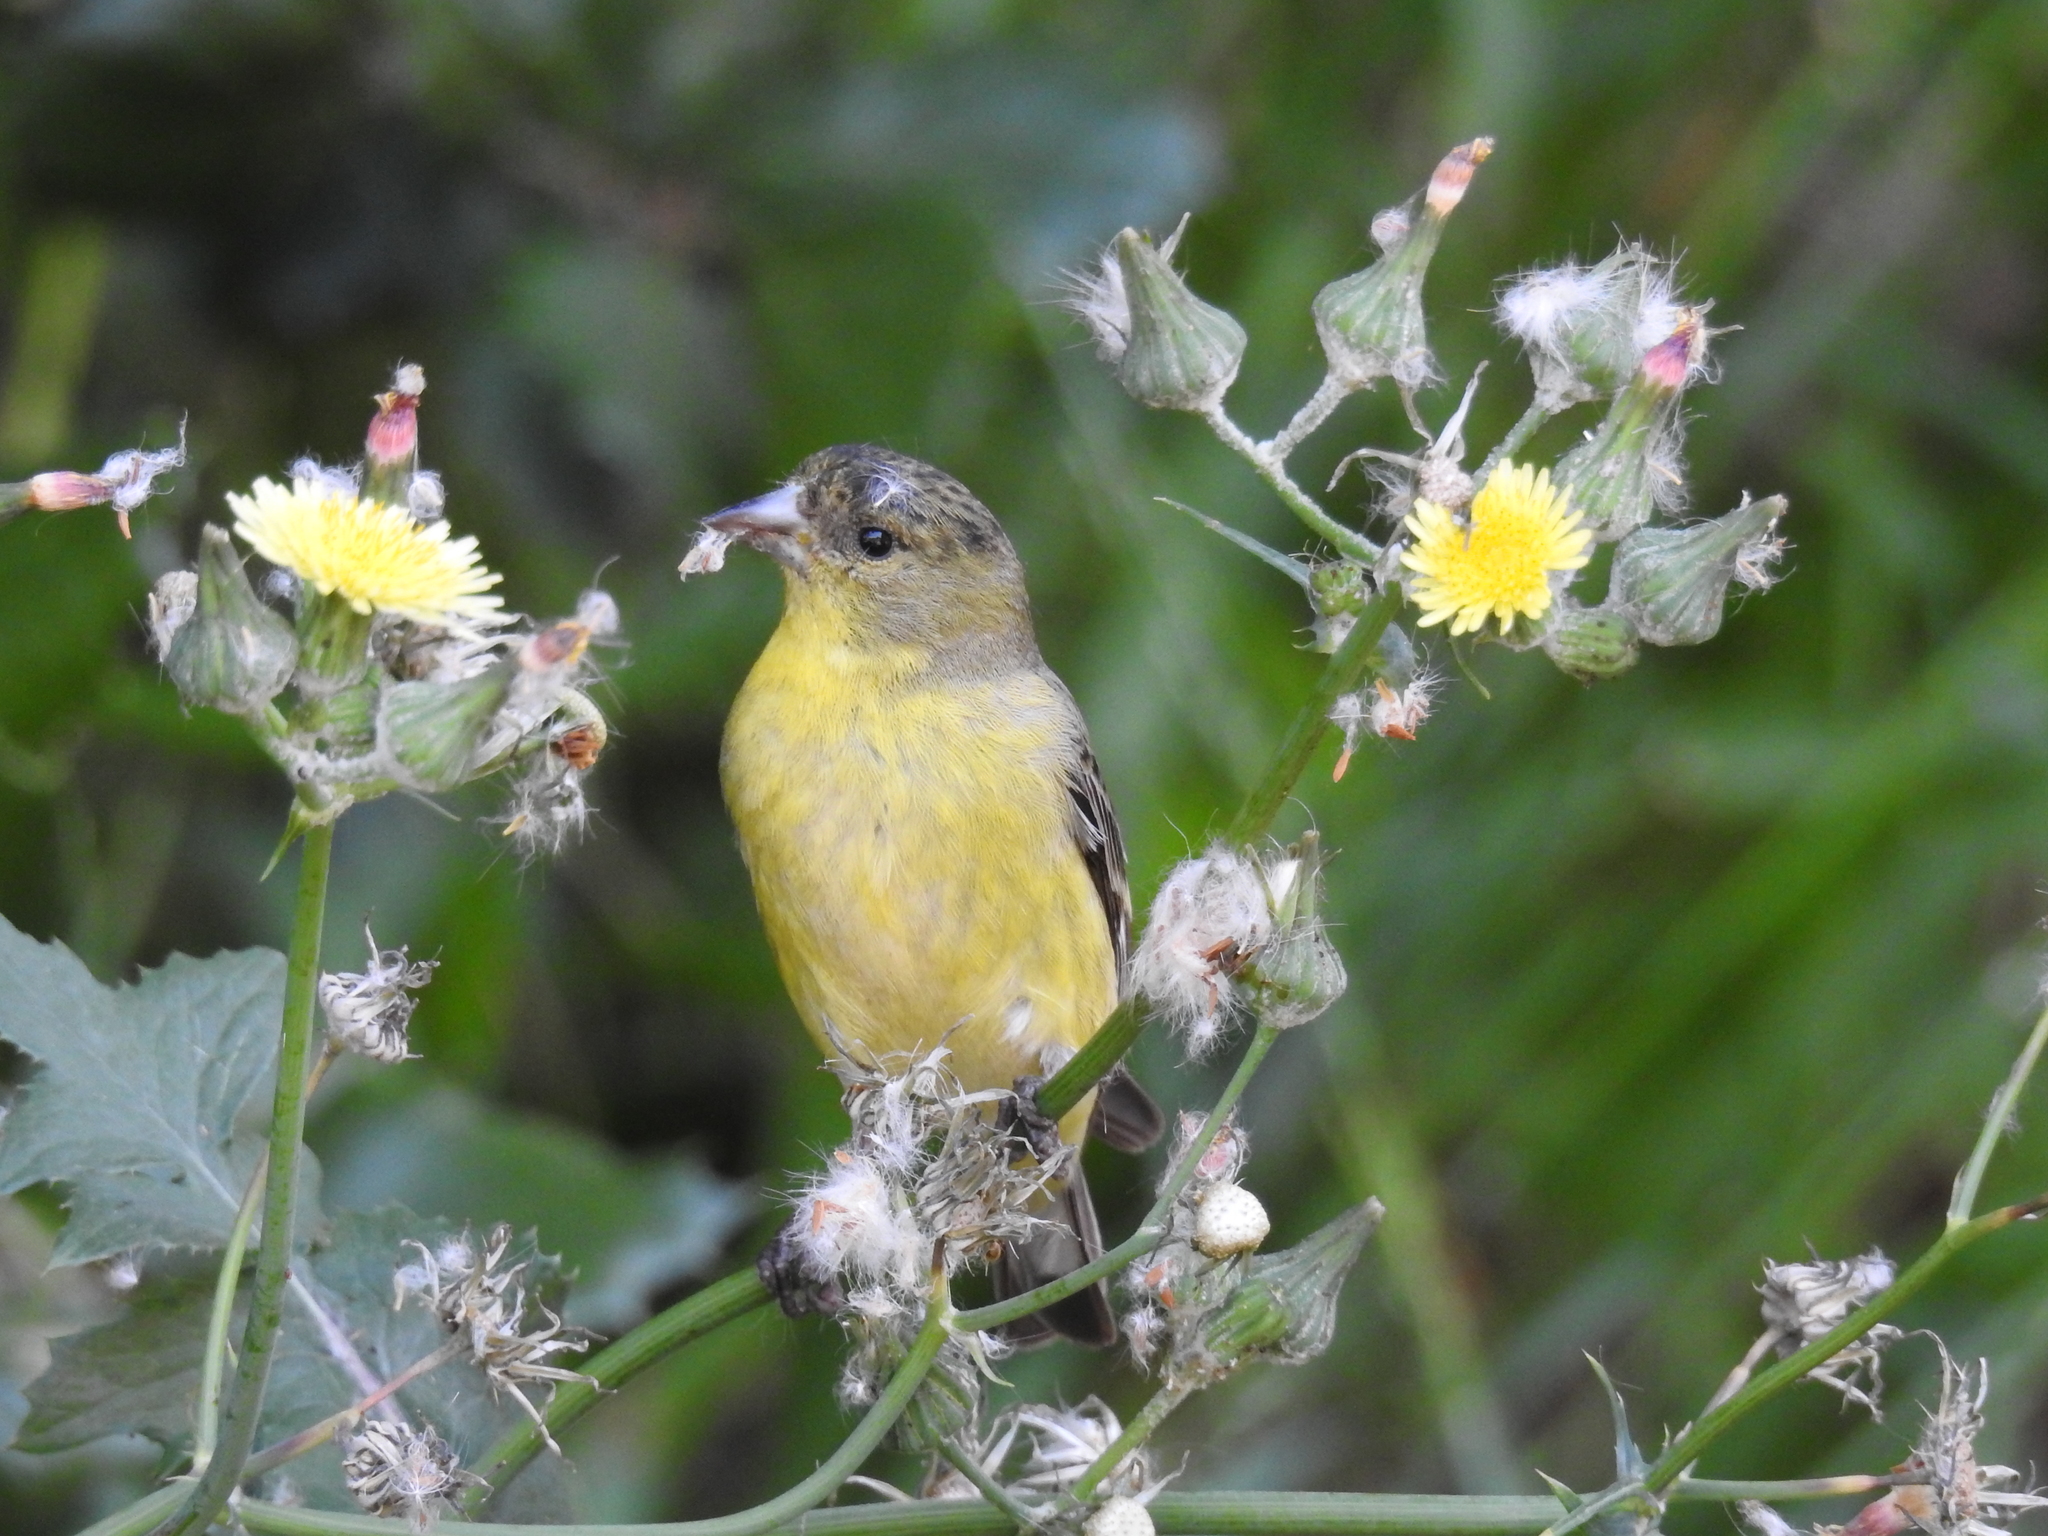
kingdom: Animalia
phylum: Chordata
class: Aves
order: Passeriformes
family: Fringillidae
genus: Spinus
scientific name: Spinus psaltria
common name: Lesser goldfinch
